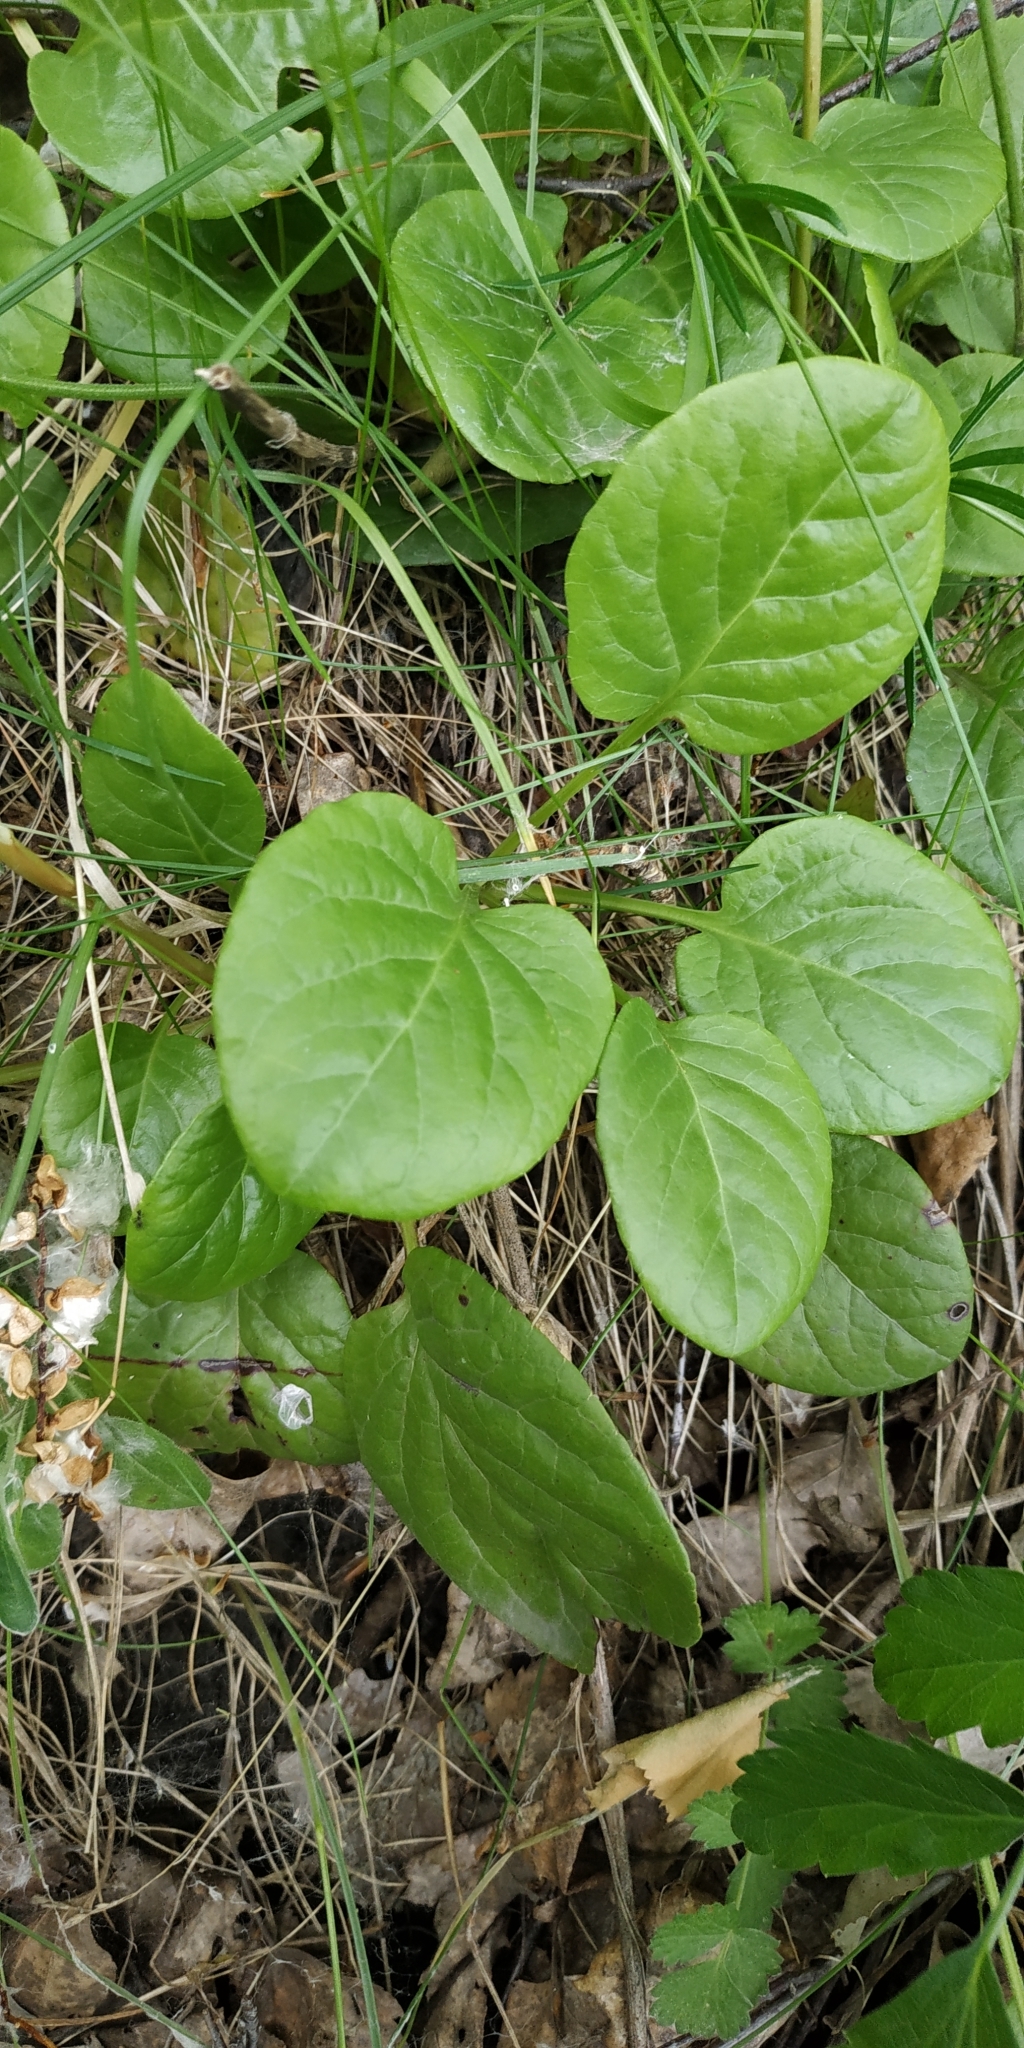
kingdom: Plantae
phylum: Tracheophyta
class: Magnoliopsida
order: Ericales
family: Ericaceae
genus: Pyrola
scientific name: Pyrola rotundifolia
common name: Round-leaved wintergreen
